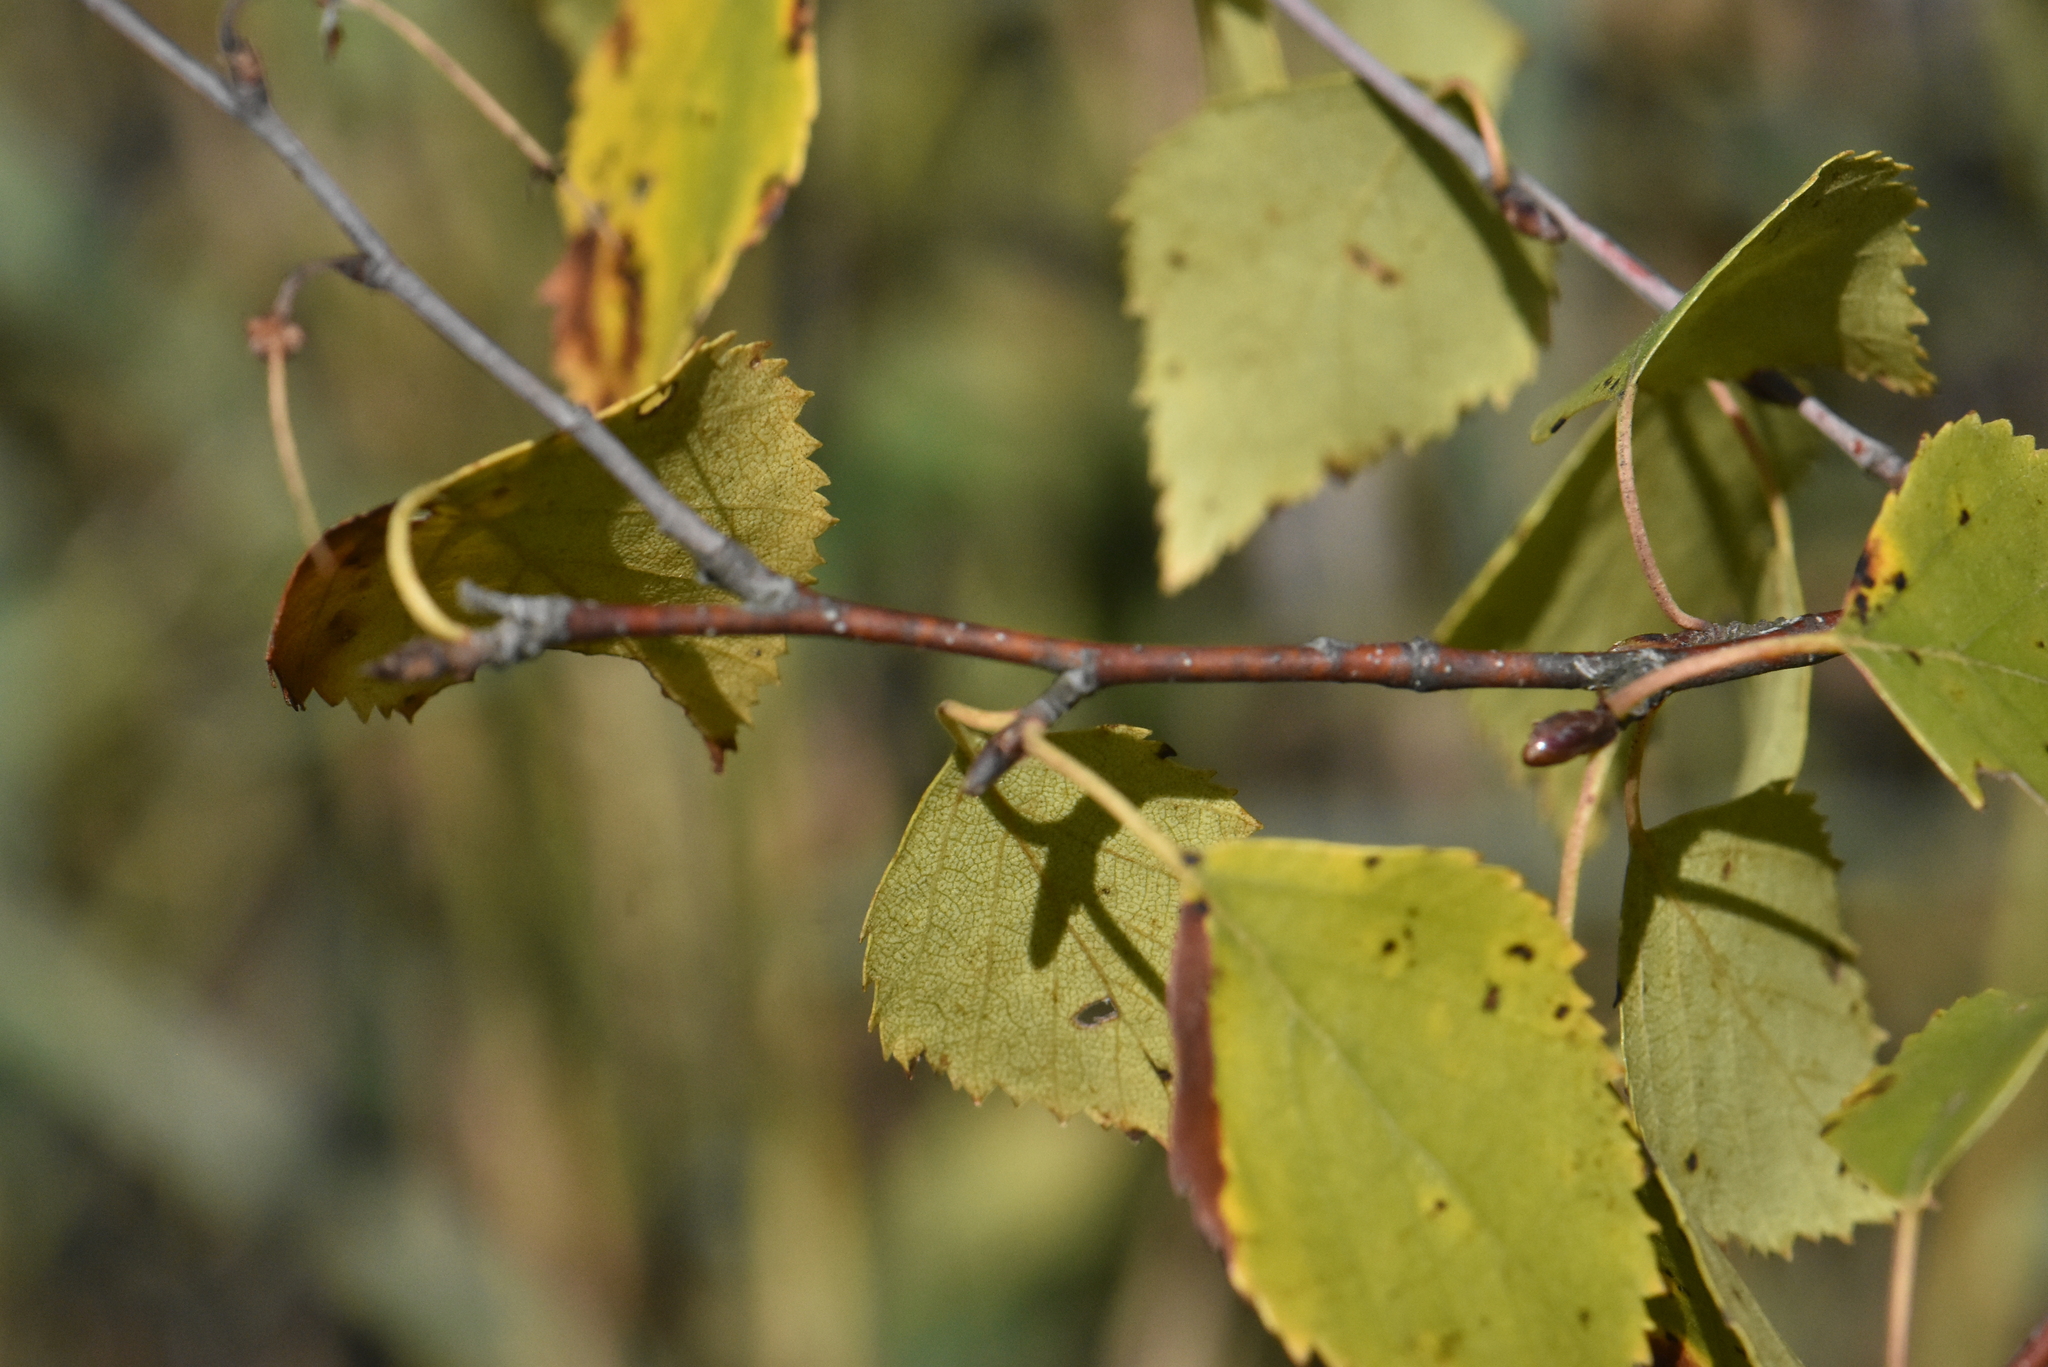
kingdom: Plantae
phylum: Tracheophyta
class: Magnoliopsida
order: Fagales
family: Betulaceae
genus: Betula
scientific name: Betula pendula
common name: Silver birch
